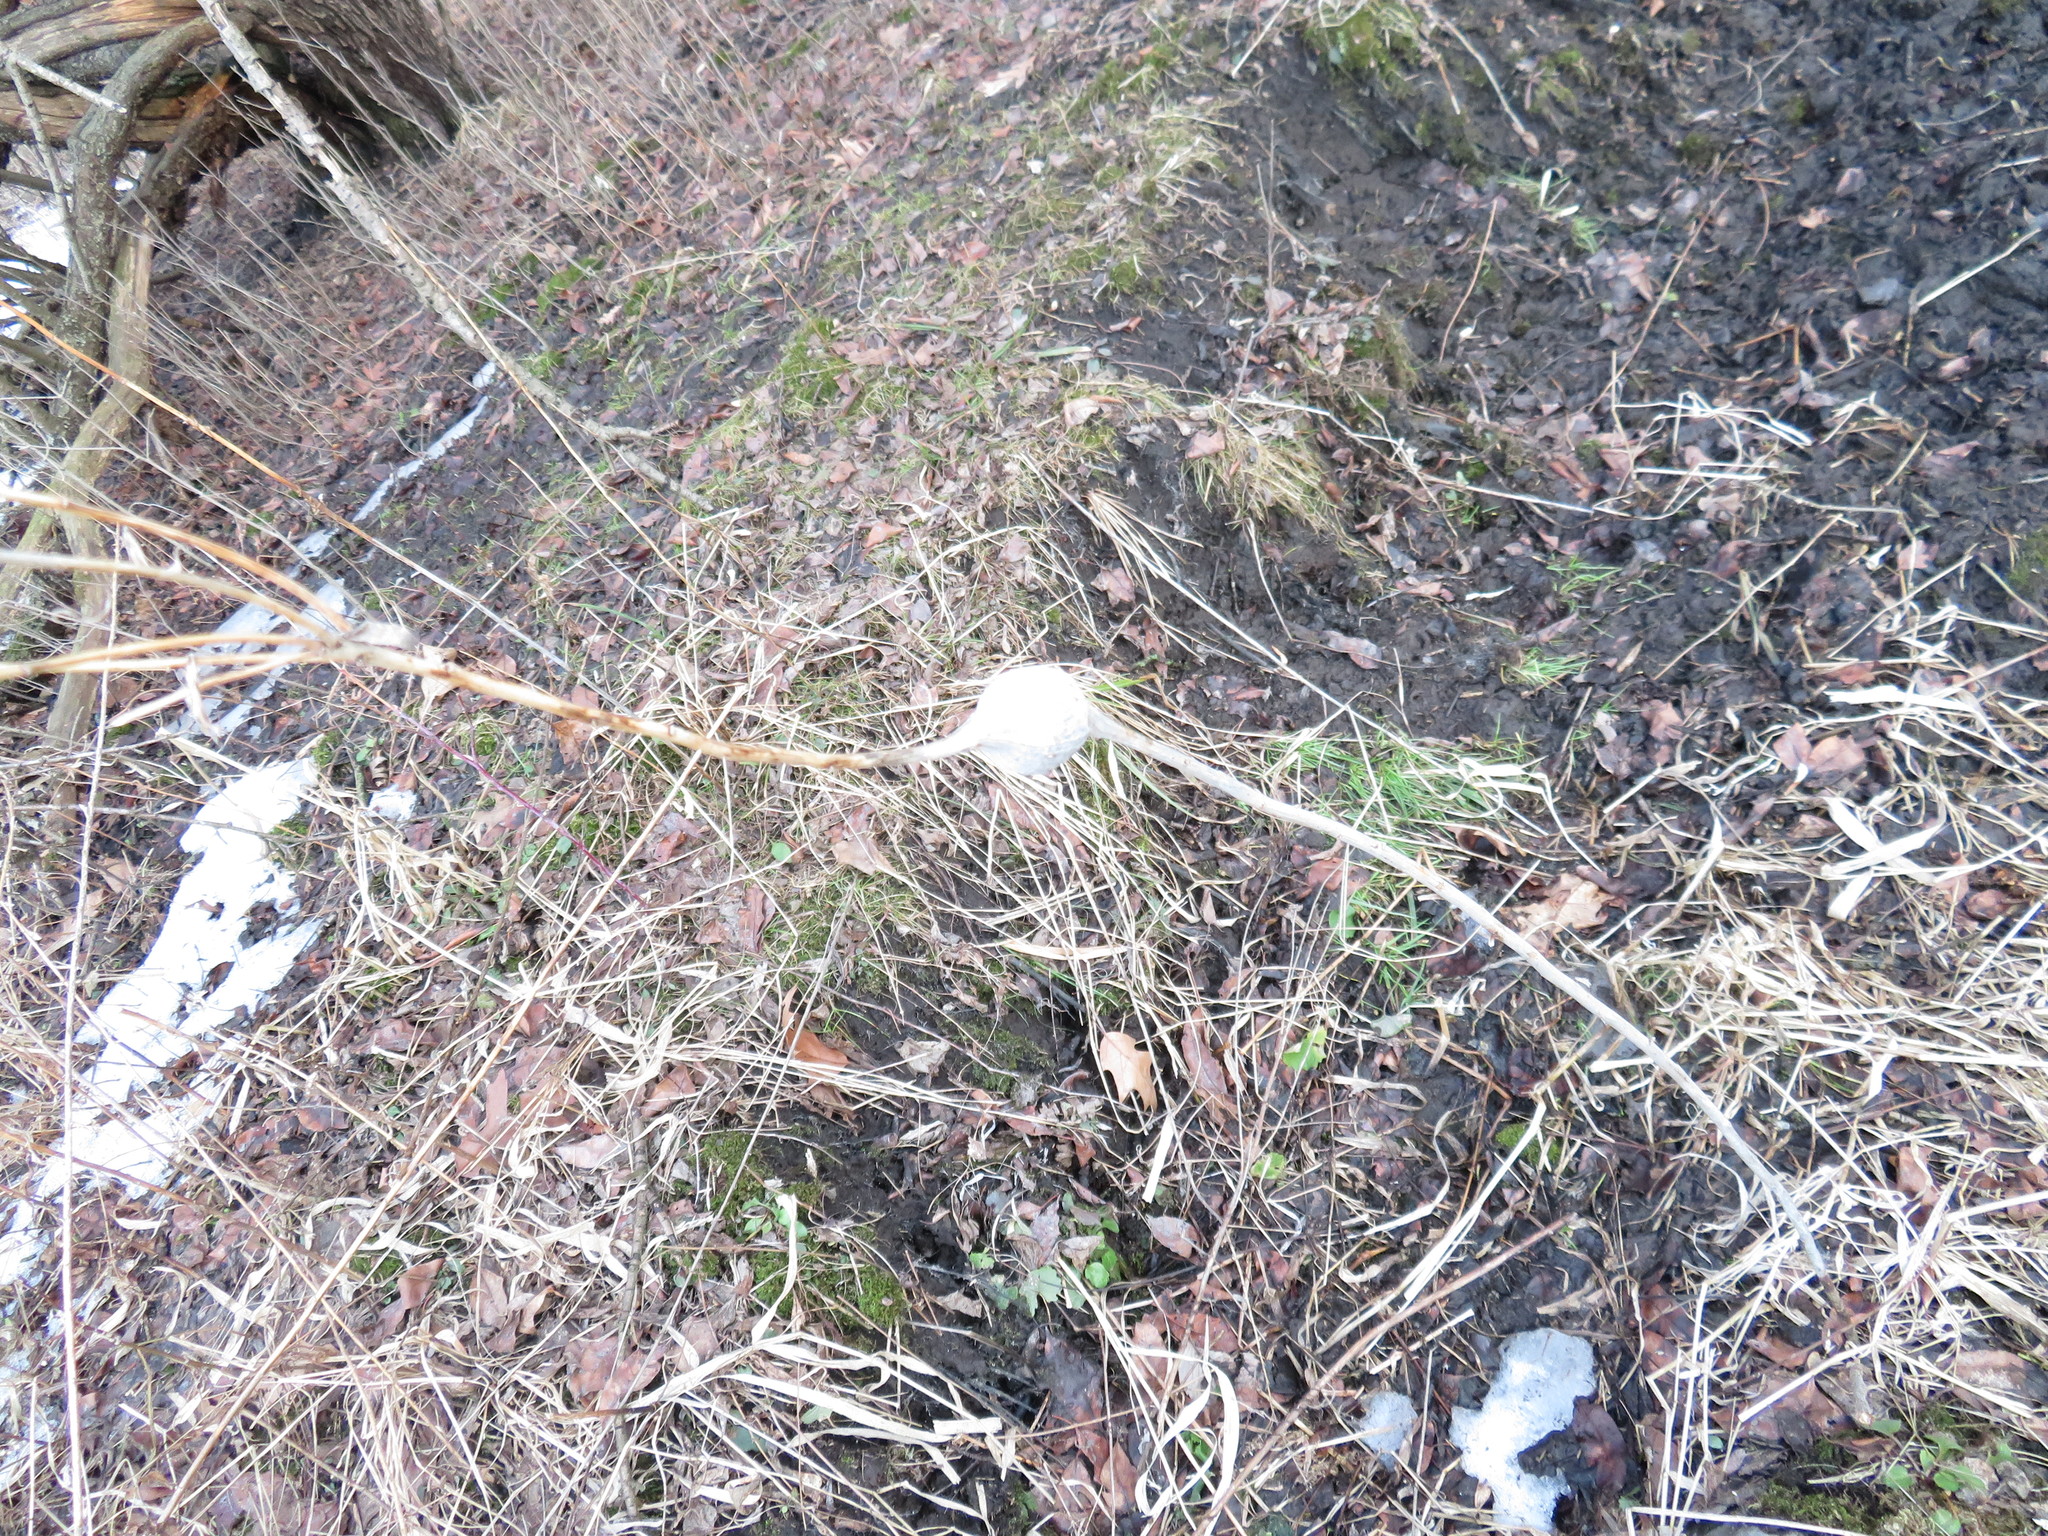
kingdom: Animalia
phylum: Arthropoda
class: Insecta
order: Diptera
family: Tephritidae
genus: Eurosta
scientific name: Eurosta solidaginis
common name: Goldenrod gall fly
